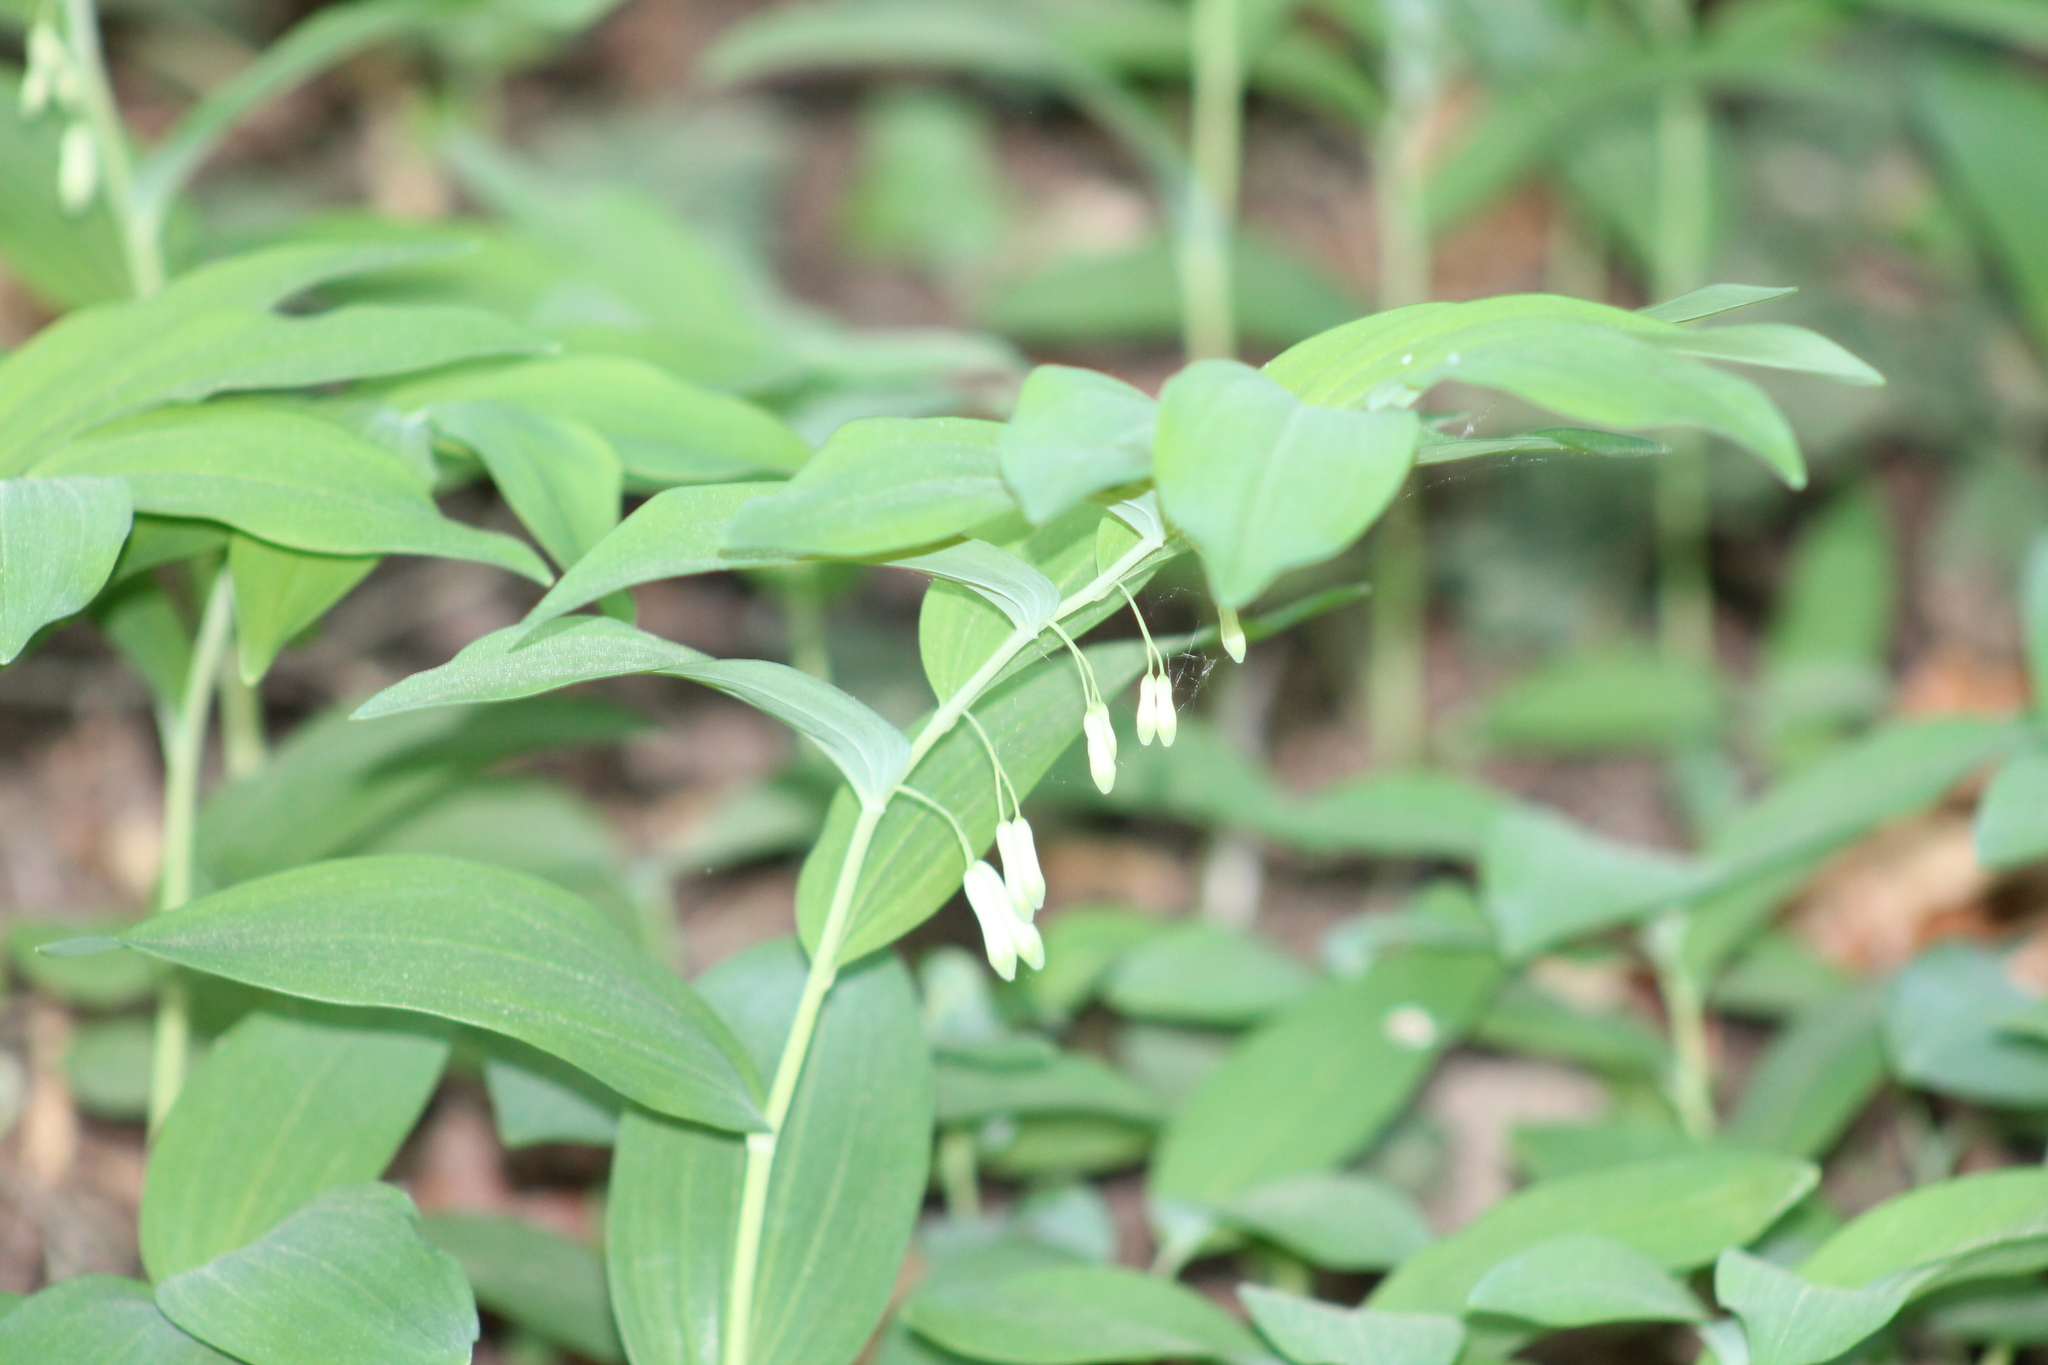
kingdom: Plantae
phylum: Tracheophyta
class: Liliopsida
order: Asparagales
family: Asparagaceae
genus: Polygonatum
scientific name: Polygonatum multiflorum
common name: Solomon's-seal
